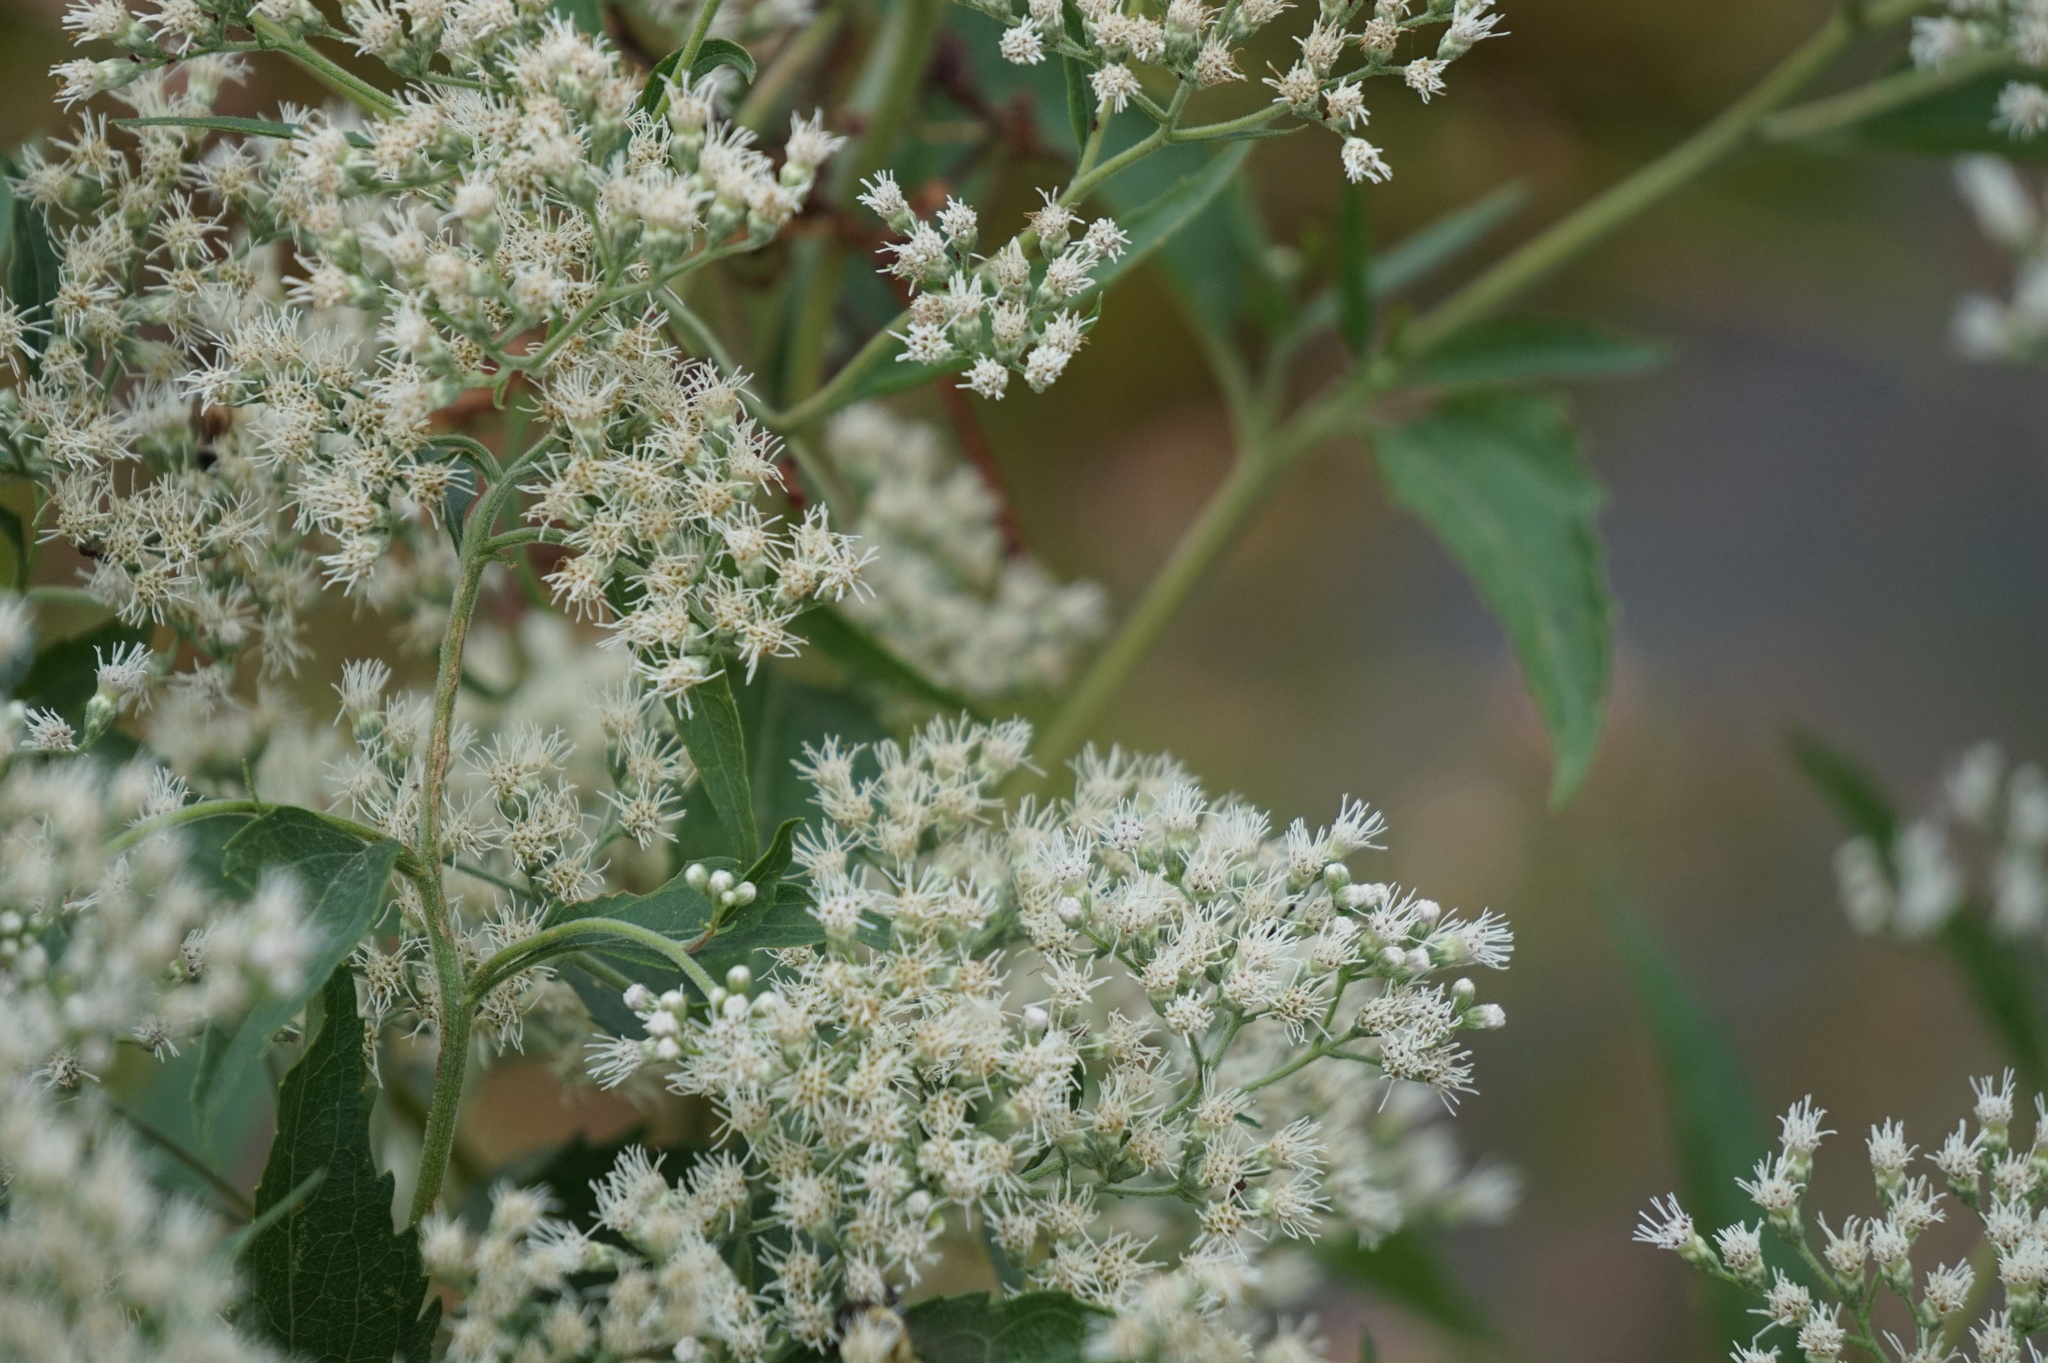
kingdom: Plantae
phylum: Tracheophyta
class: Magnoliopsida
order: Asterales
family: Asteraceae
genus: Eupatorium
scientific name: Eupatorium serotinum
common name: Late boneset
